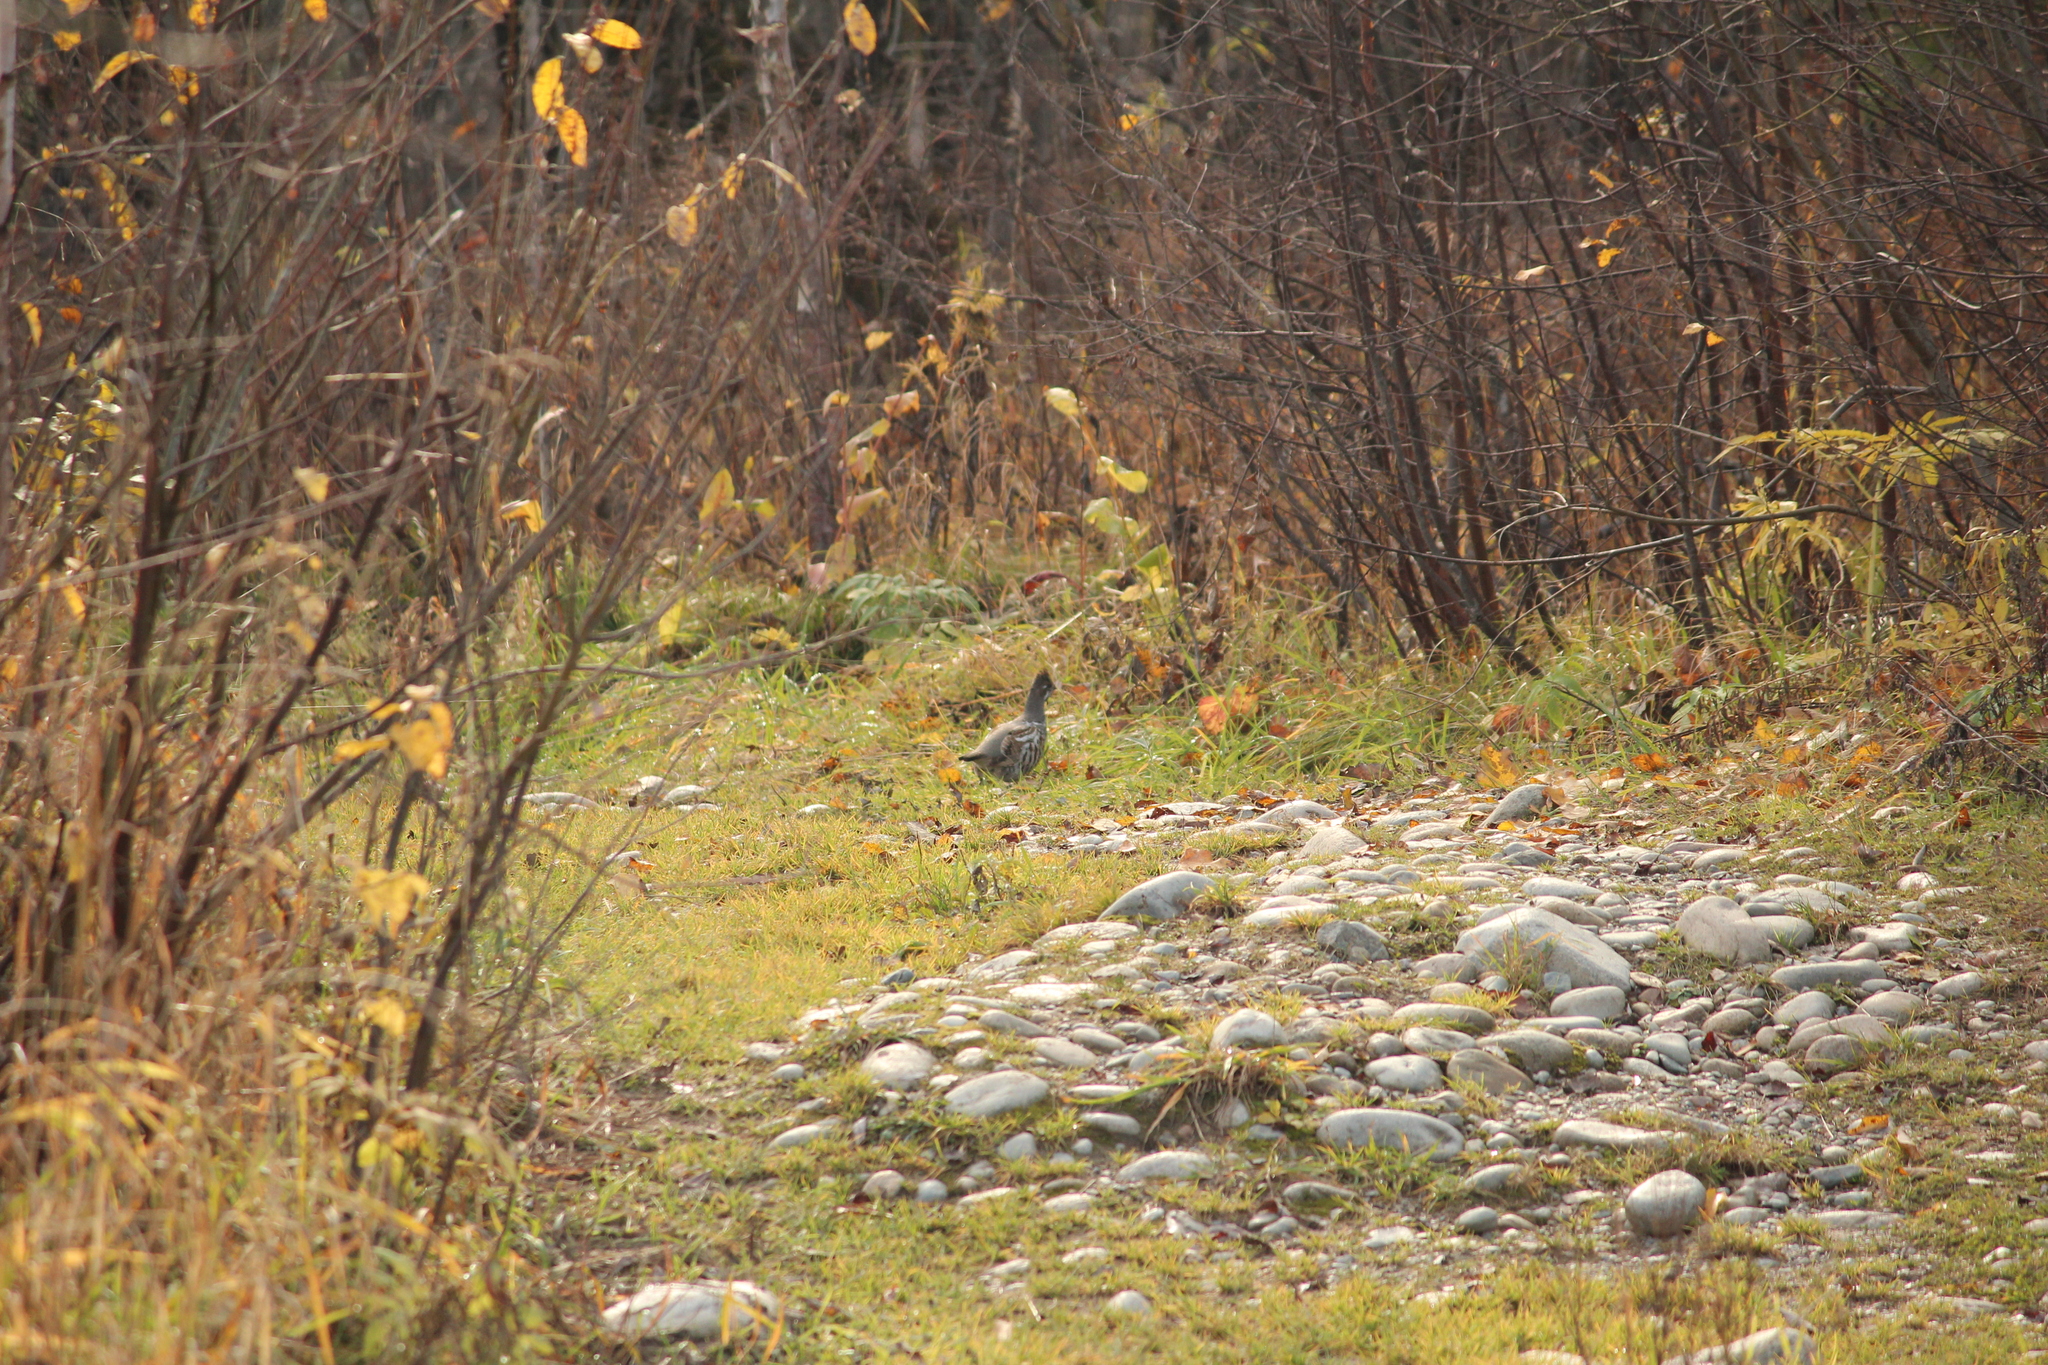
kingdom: Animalia
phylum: Chordata
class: Aves
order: Galliformes
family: Phasianidae
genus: Tetrastes
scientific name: Tetrastes bonasia
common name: Hazel grouse
